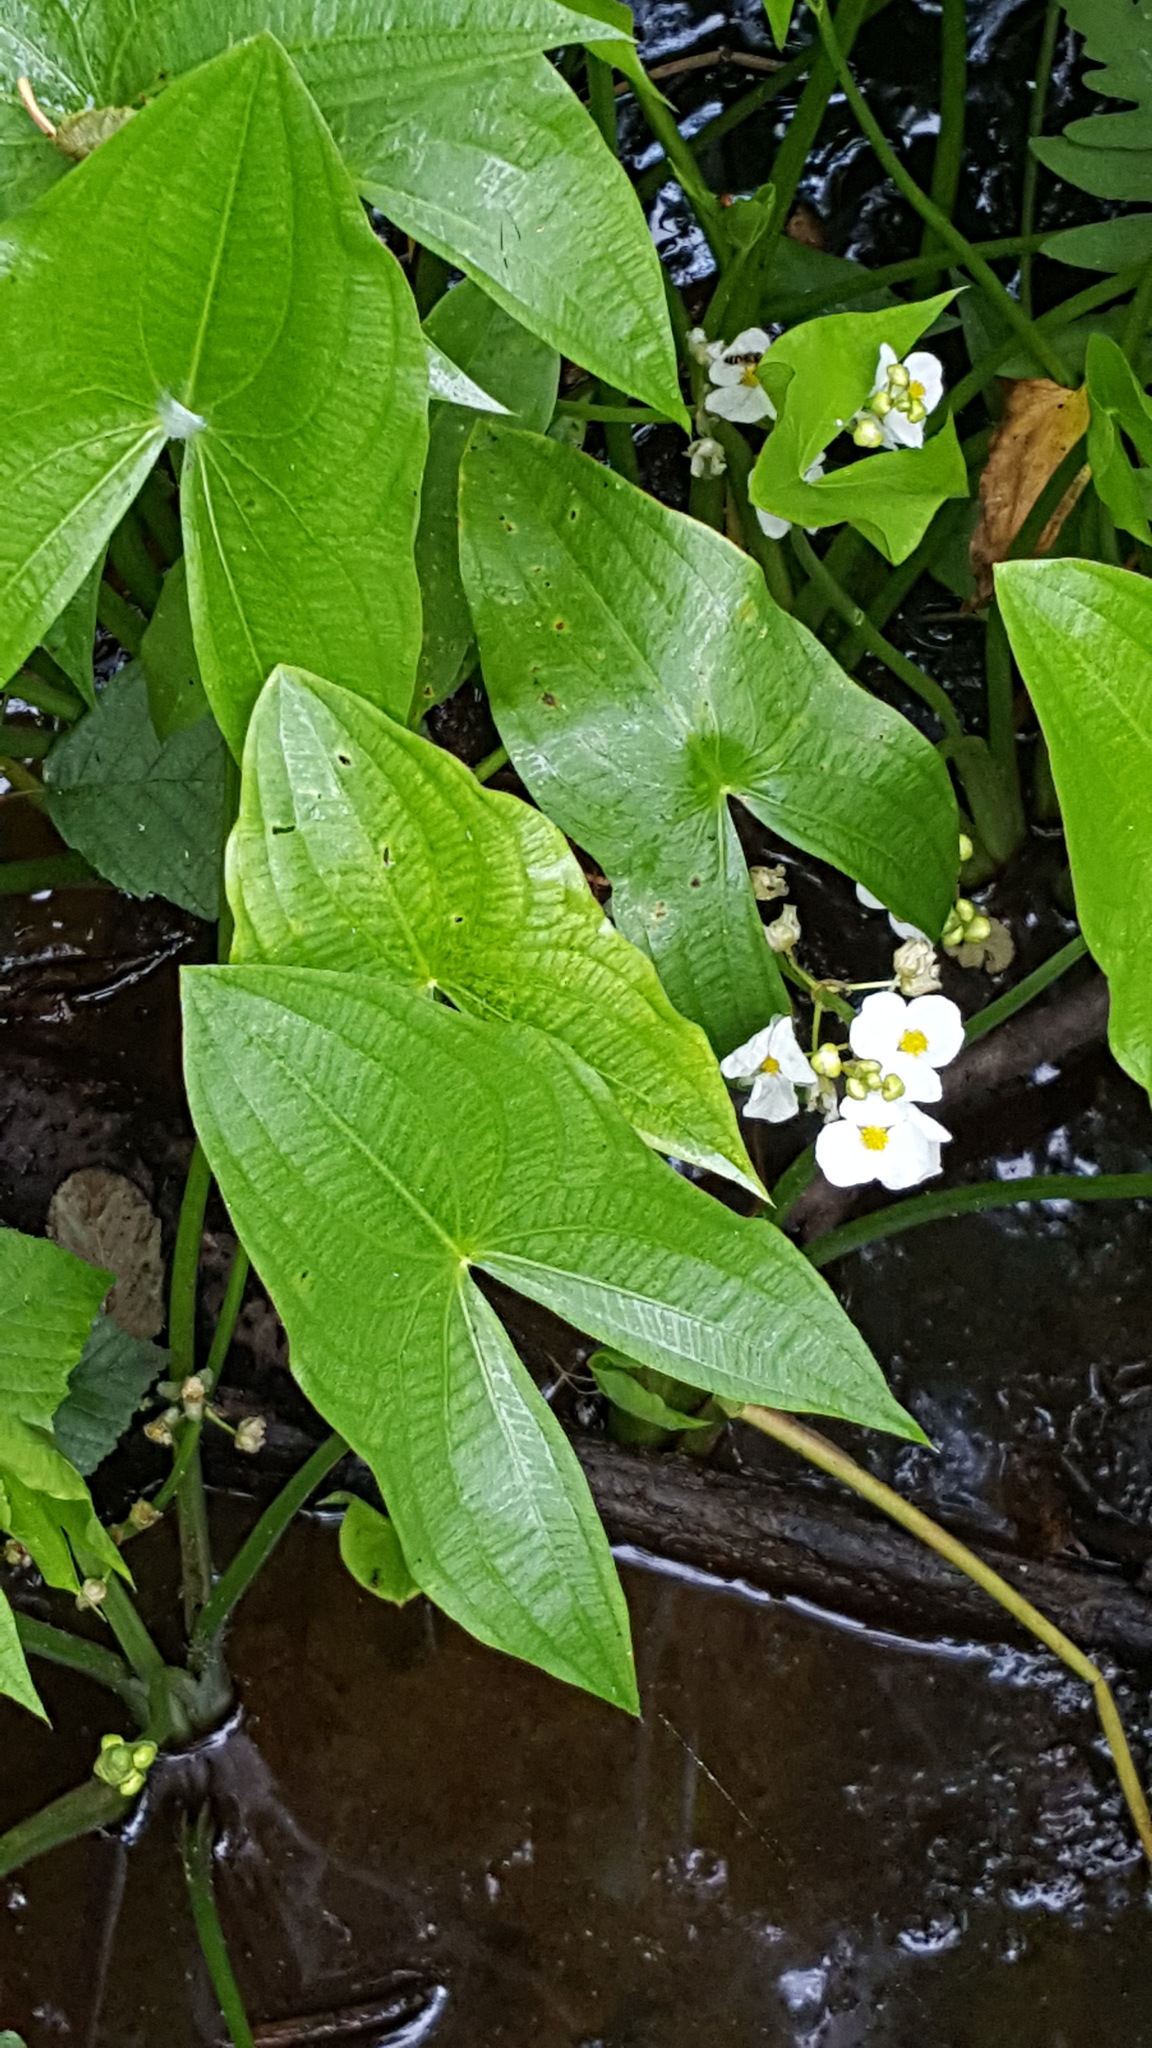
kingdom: Plantae
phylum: Tracheophyta
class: Liliopsida
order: Alismatales
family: Alismataceae
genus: Sagittaria
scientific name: Sagittaria latifolia
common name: Duck-potato
